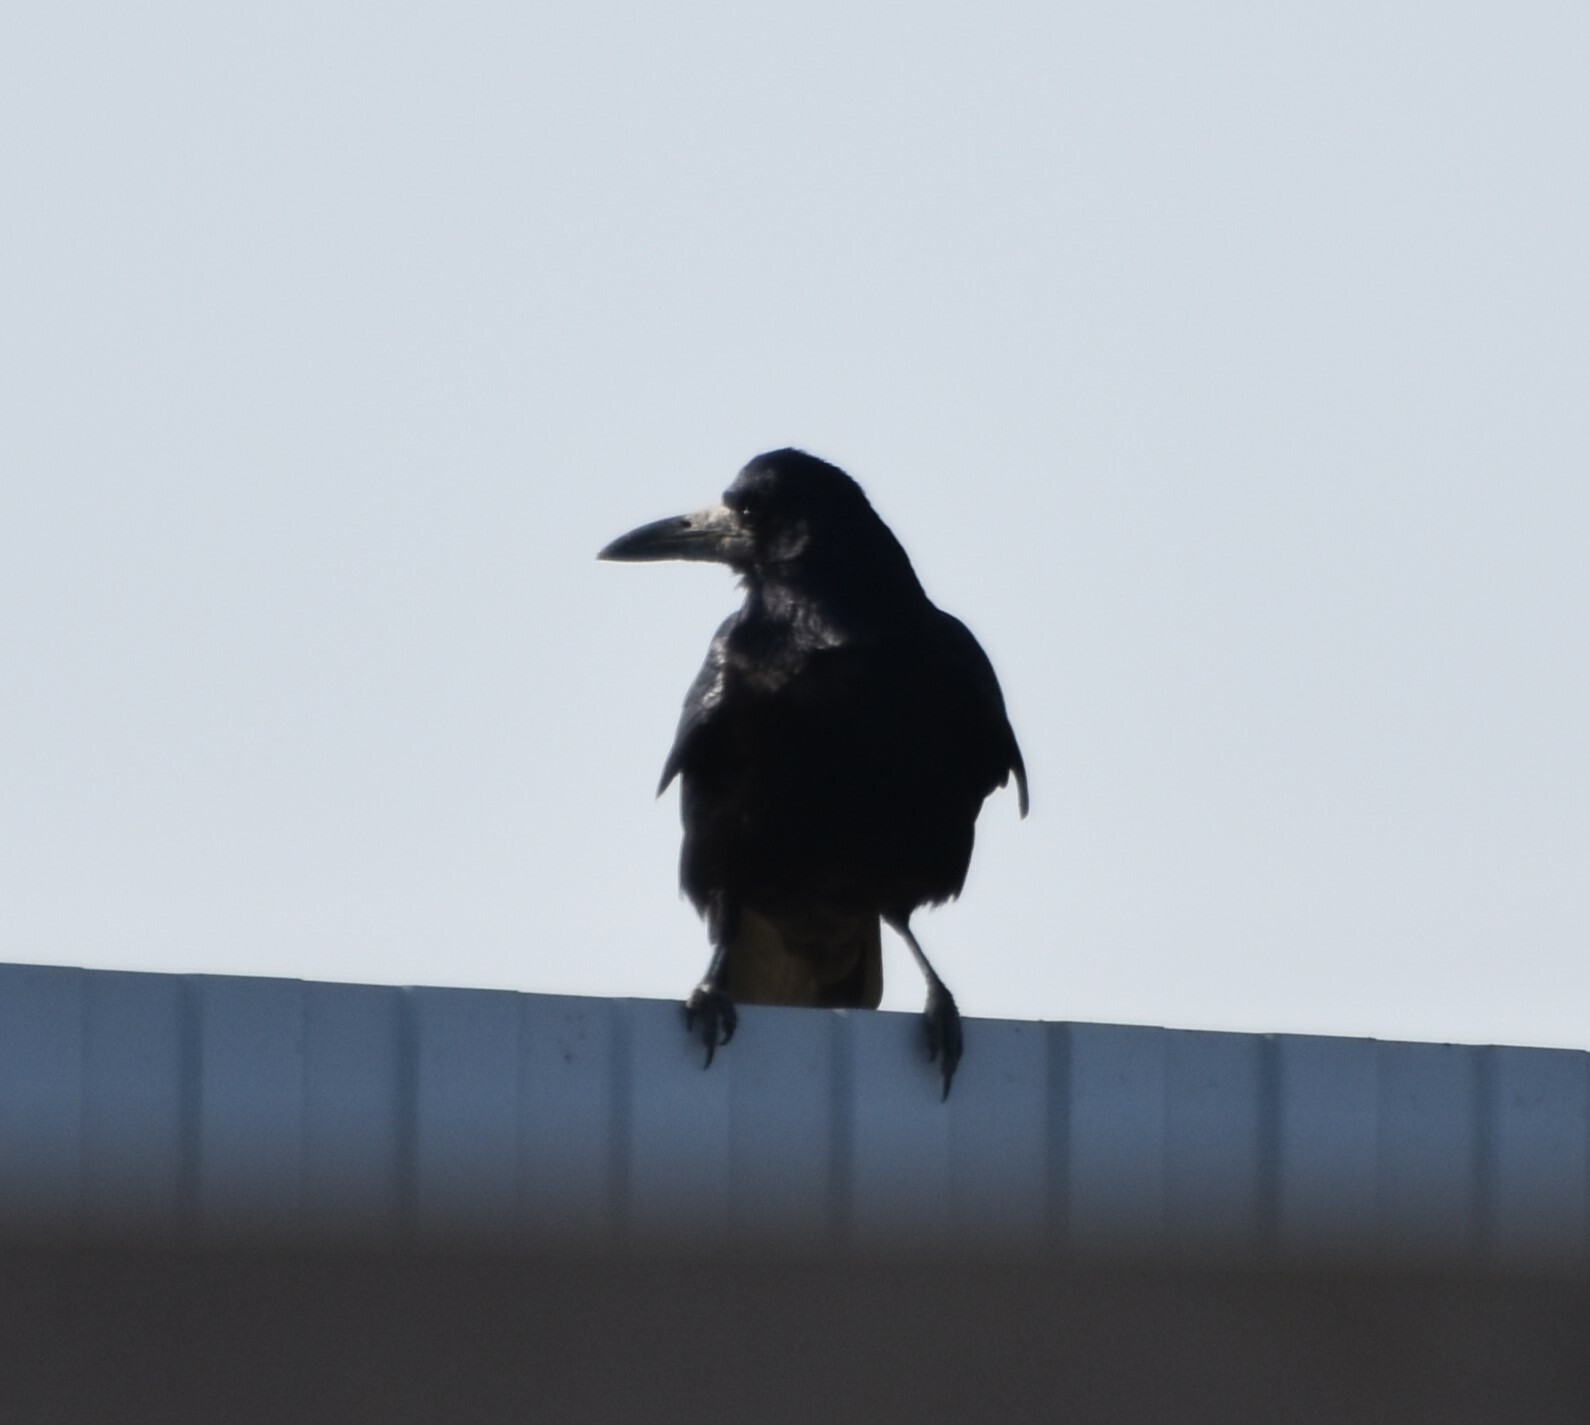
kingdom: Animalia
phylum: Chordata
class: Aves
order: Passeriformes
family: Corvidae
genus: Corvus
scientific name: Corvus frugilegus
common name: Rook
